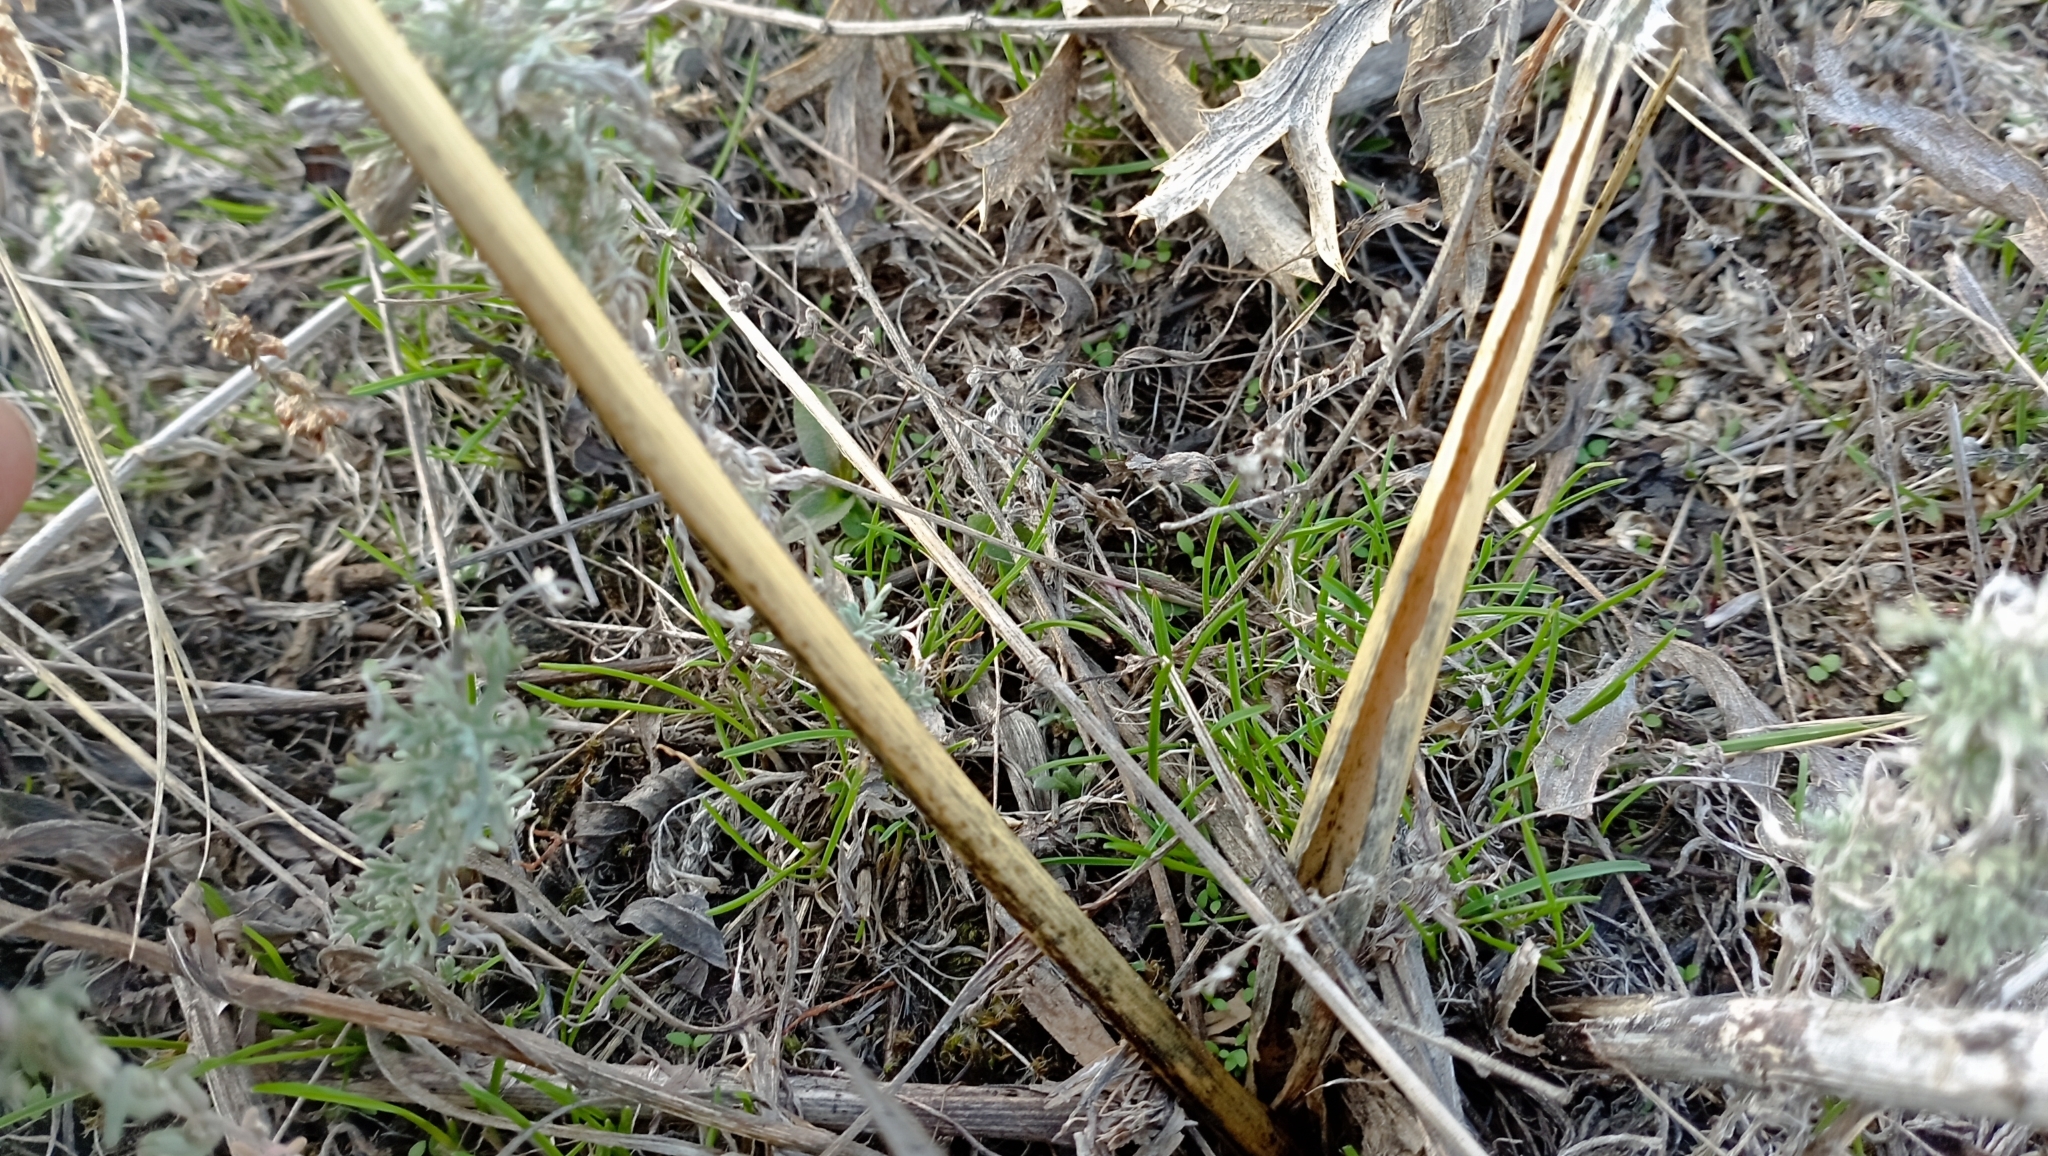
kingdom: Plantae
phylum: Tracheophyta
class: Magnoliopsida
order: Apiales
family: Apiaceae
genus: Eryngium
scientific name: Eryngium campestre
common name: Field eryngo
